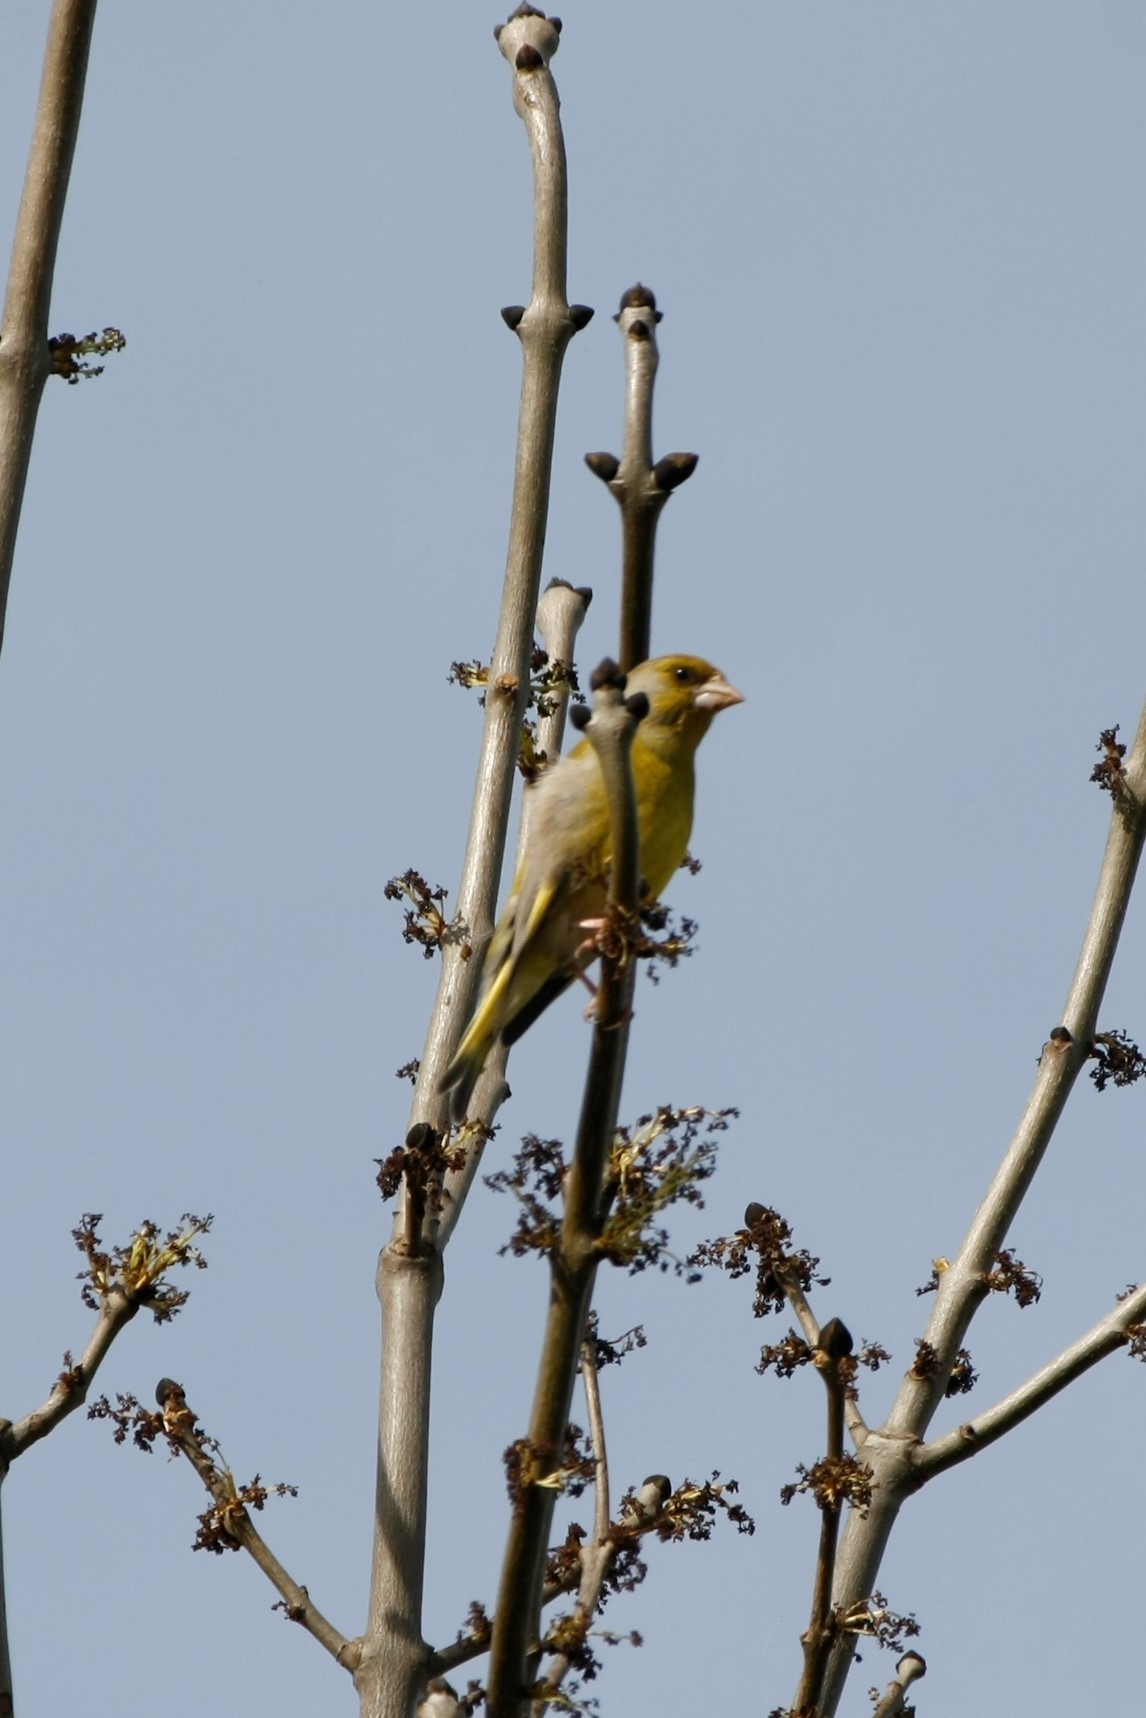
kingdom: Plantae
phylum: Tracheophyta
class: Liliopsida
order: Poales
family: Poaceae
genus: Chloris
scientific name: Chloris chloris
